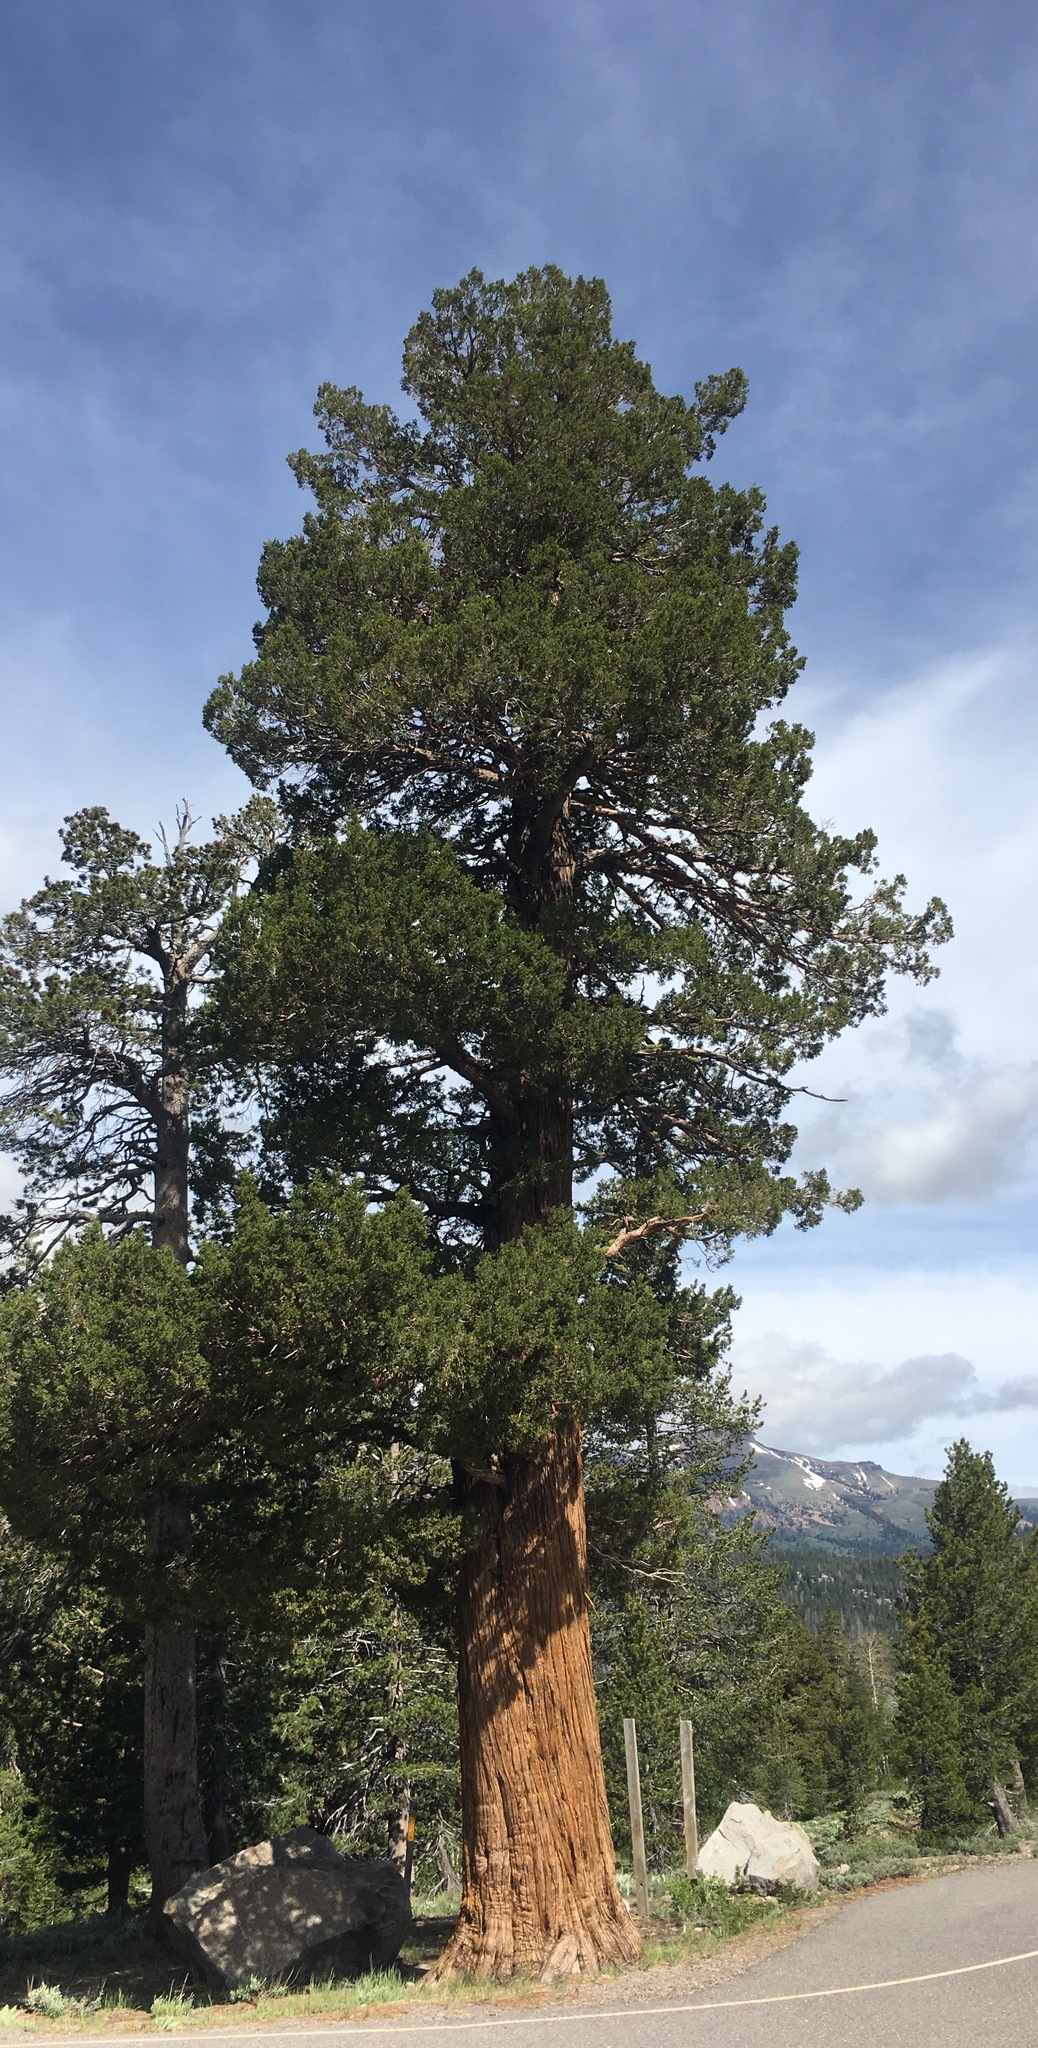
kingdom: Plantae
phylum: Tracheophyta
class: Pinopsida
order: Pinales
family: Cupressaceae
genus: Juniperus
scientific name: Juniperus occidentalis
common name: Western juniper
